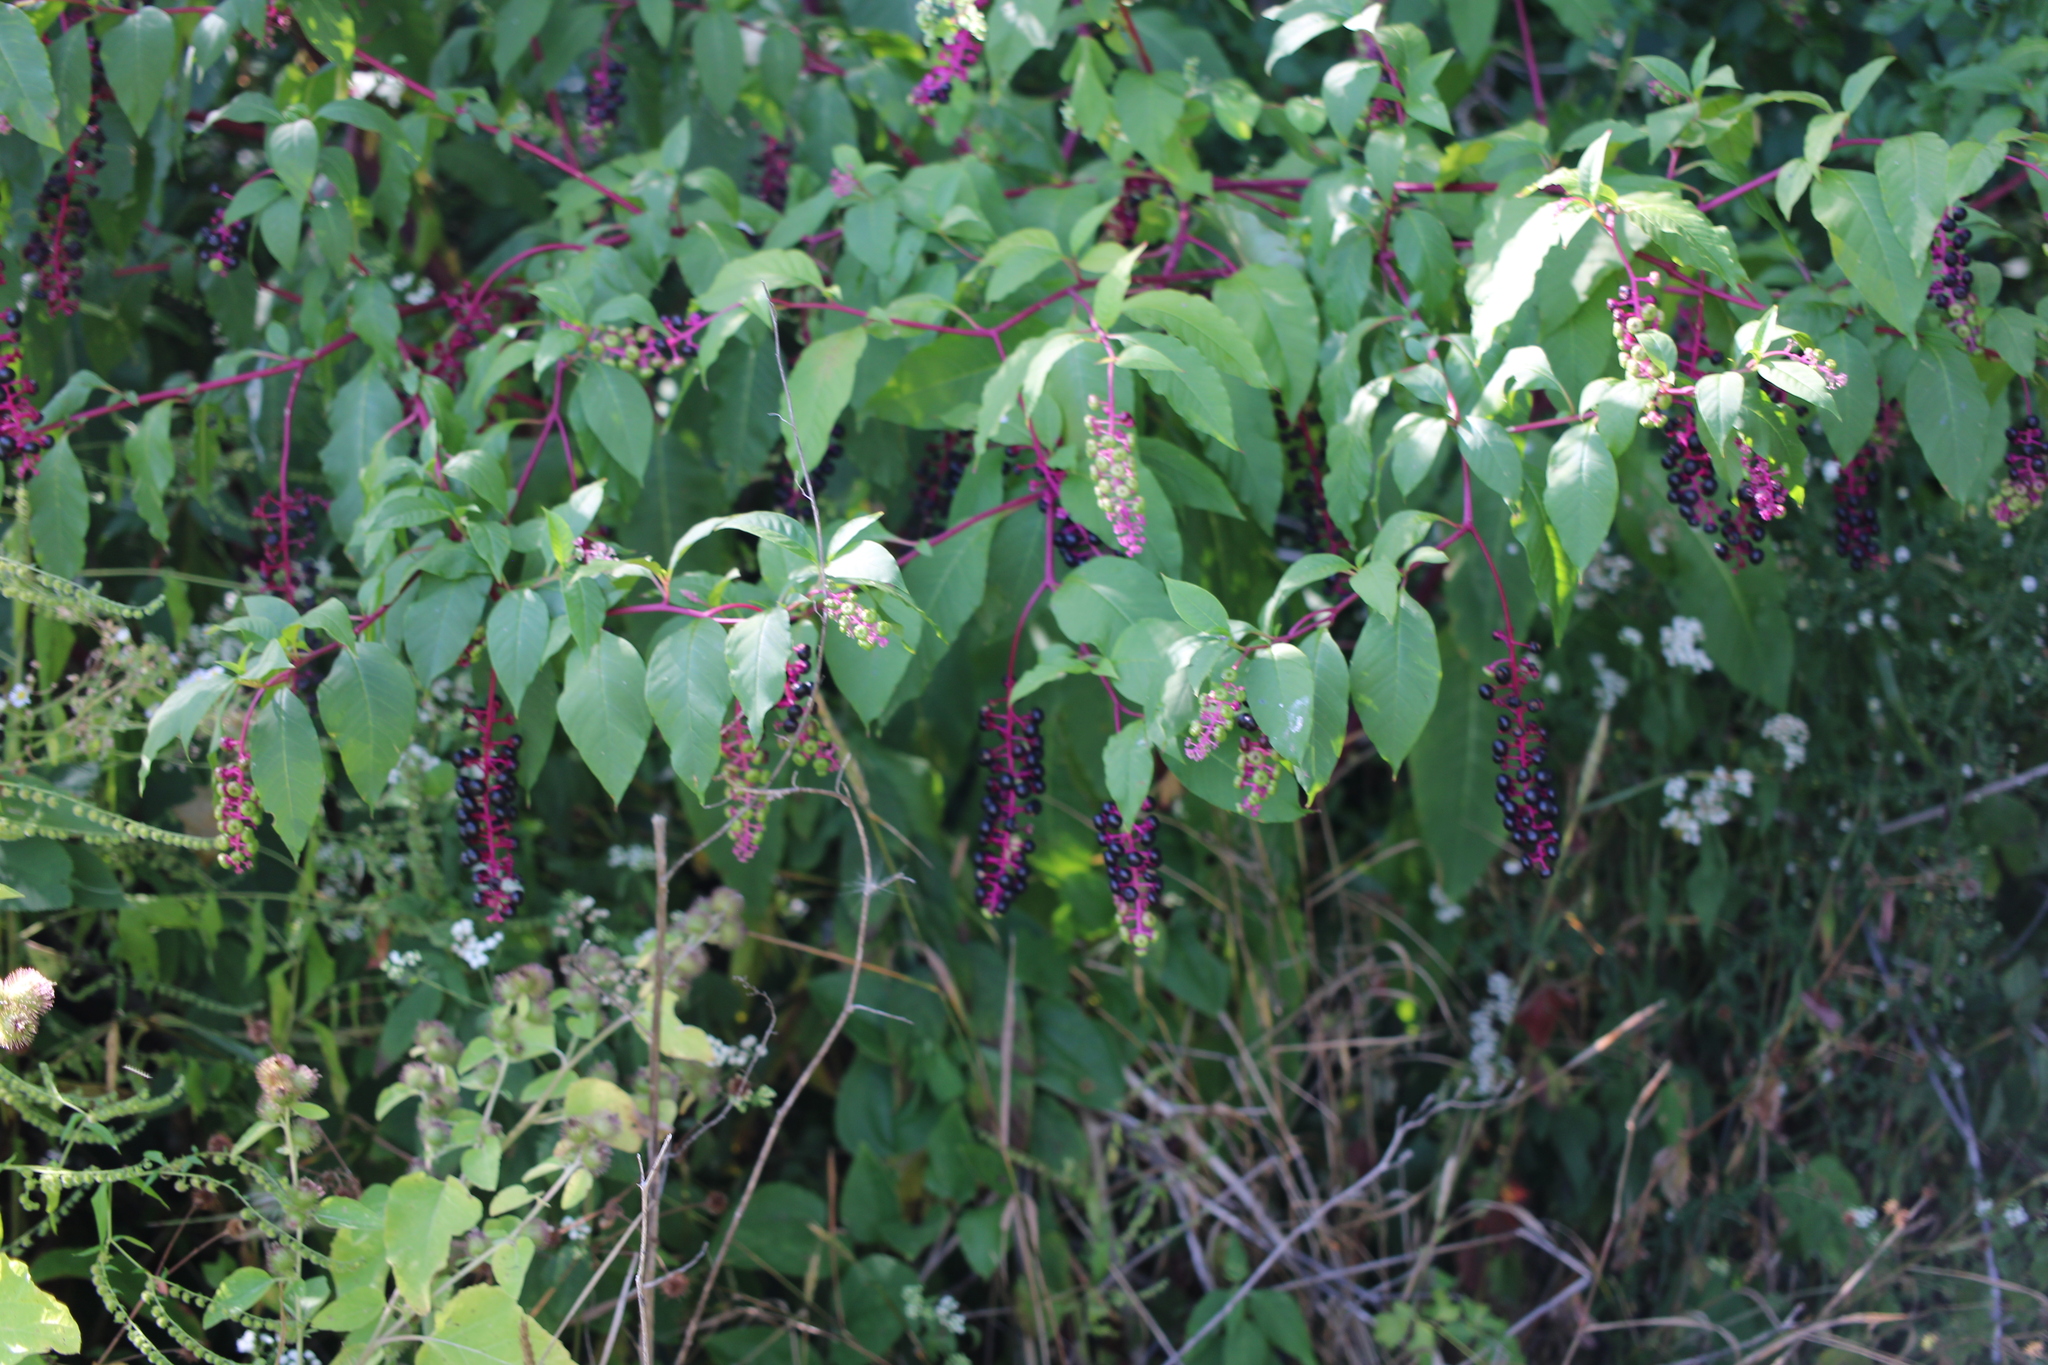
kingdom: Plantae
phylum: Tracheophyta
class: Magnoliopsida
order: Caryophyllales
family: Phytolaccaceae
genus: Phytolacca
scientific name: Phytolacca americana
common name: American pokeweed
